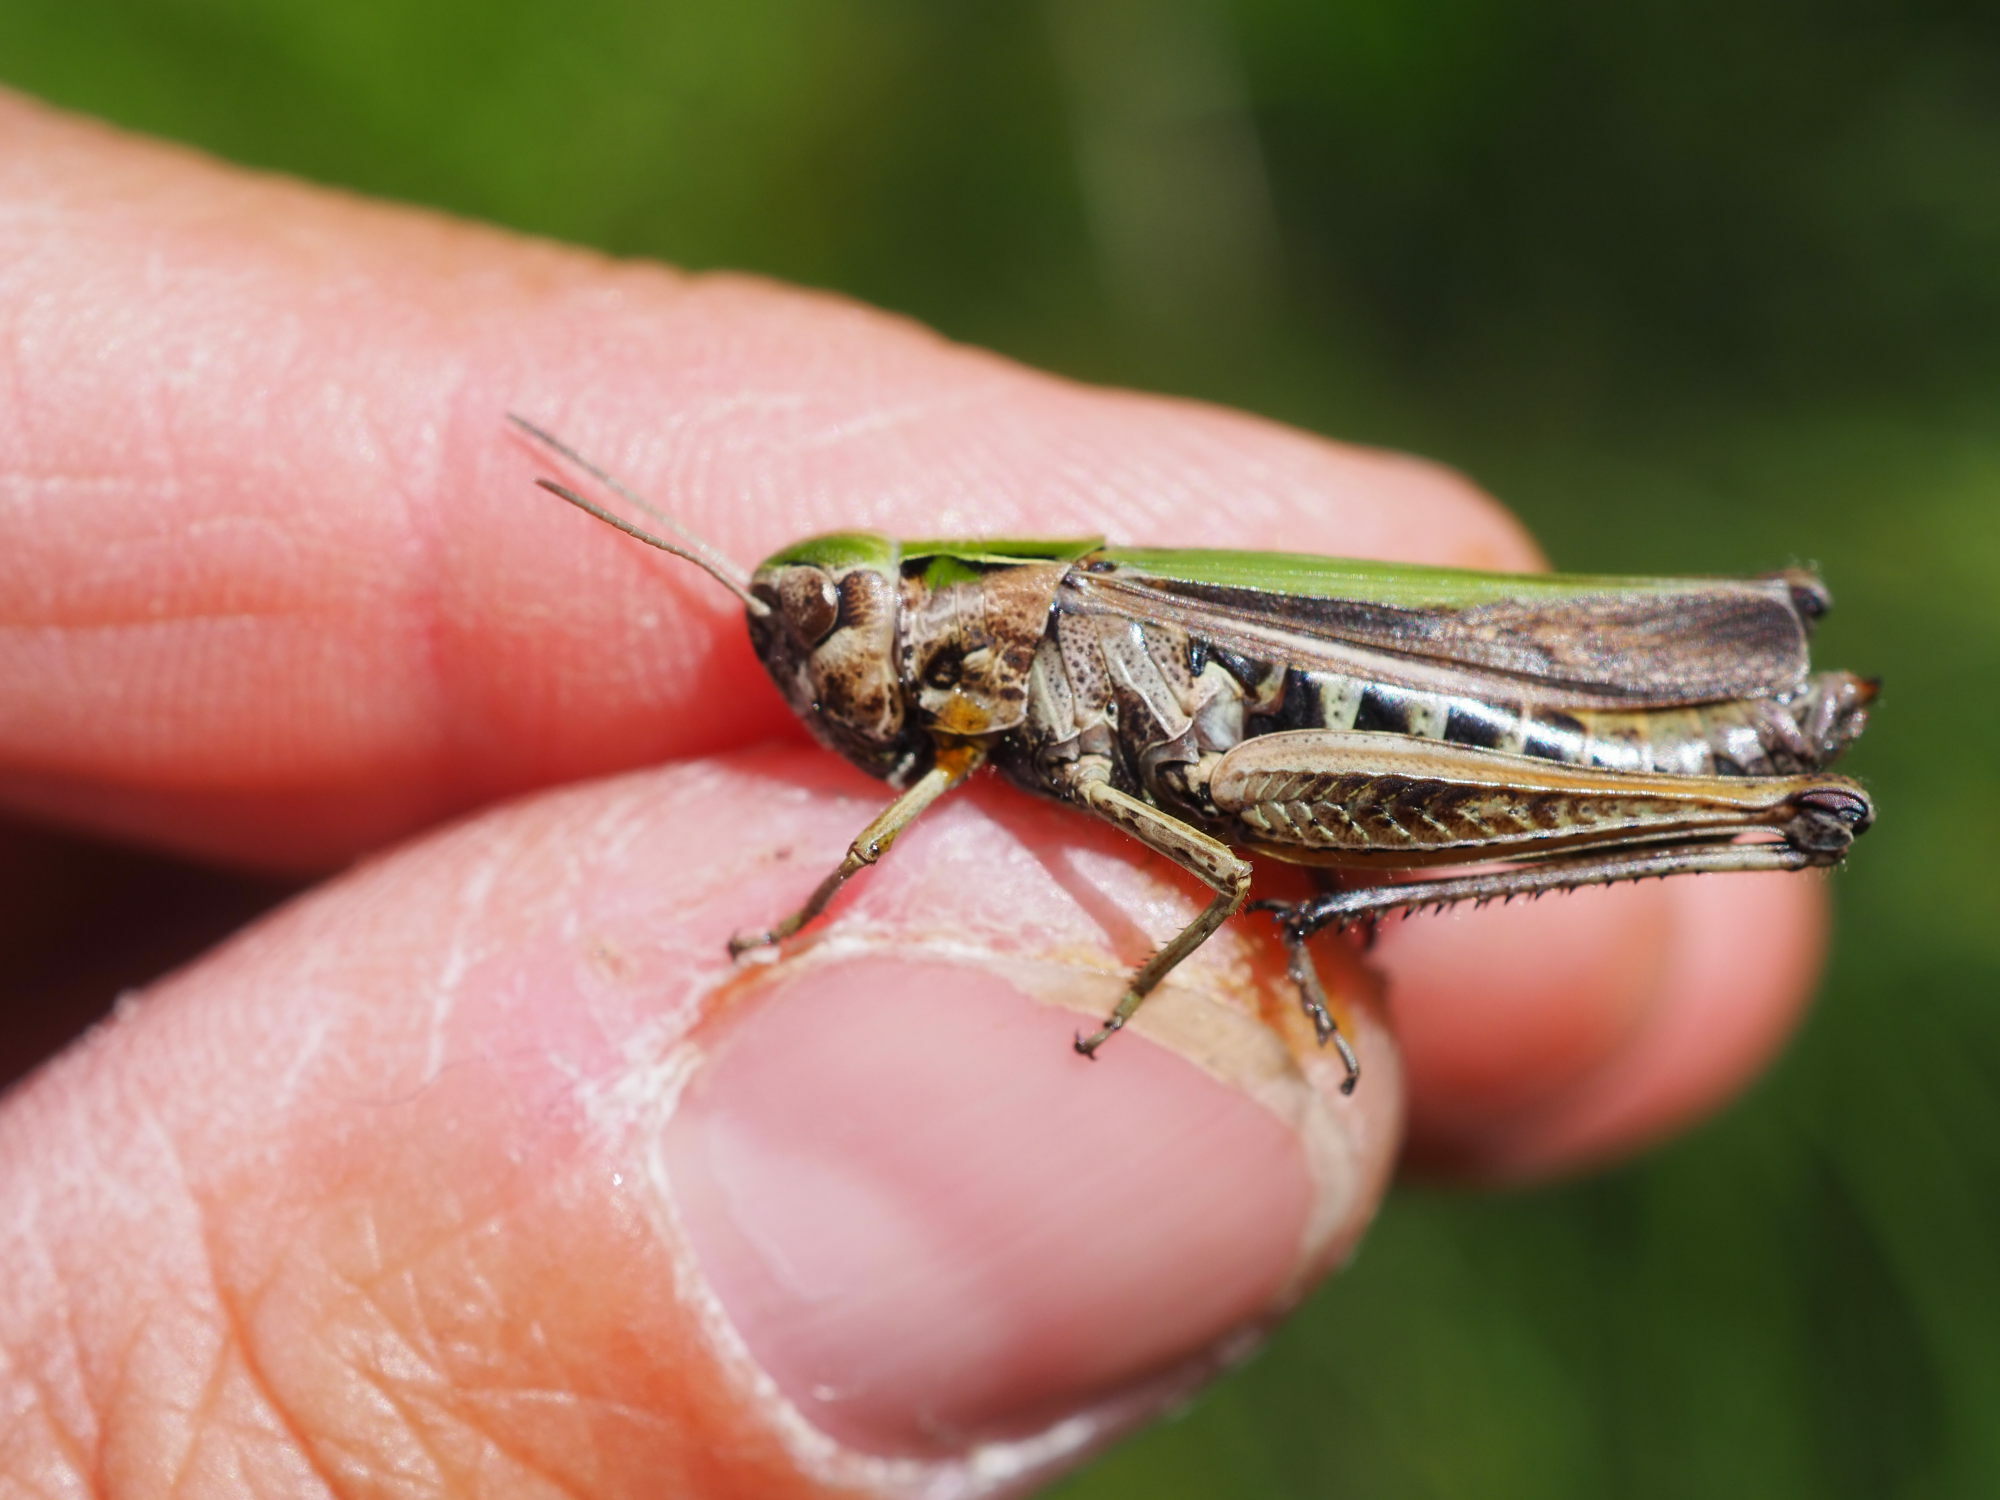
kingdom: Animalia
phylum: Arthropoda
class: Insecta
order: Orthoptera
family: Acrididae
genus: Omocestus
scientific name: Omocestus viridulus
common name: Common green grasshopper
